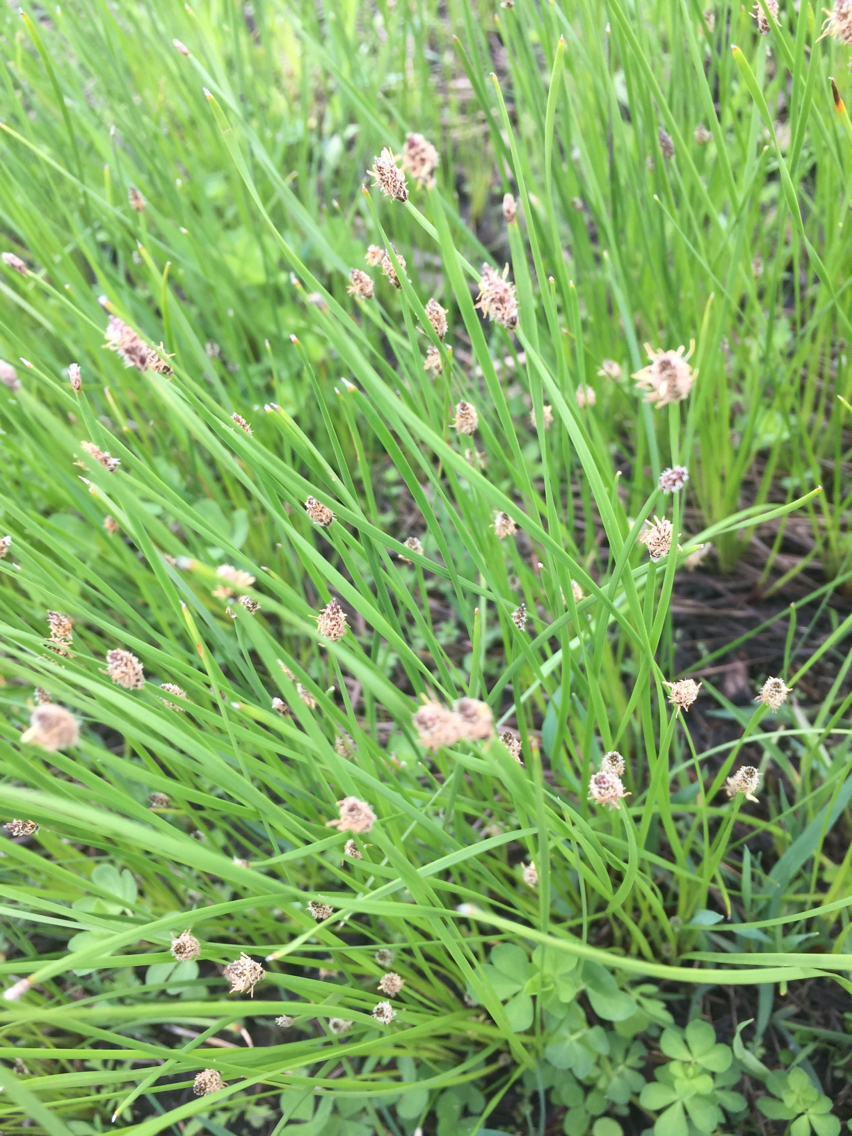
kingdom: Plantae
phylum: Tracheophyta
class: Liliopsida
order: Poales
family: Cyperaceae
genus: Eleocharis
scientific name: Eleocharis compressa
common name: Flat-stem spike-rush
